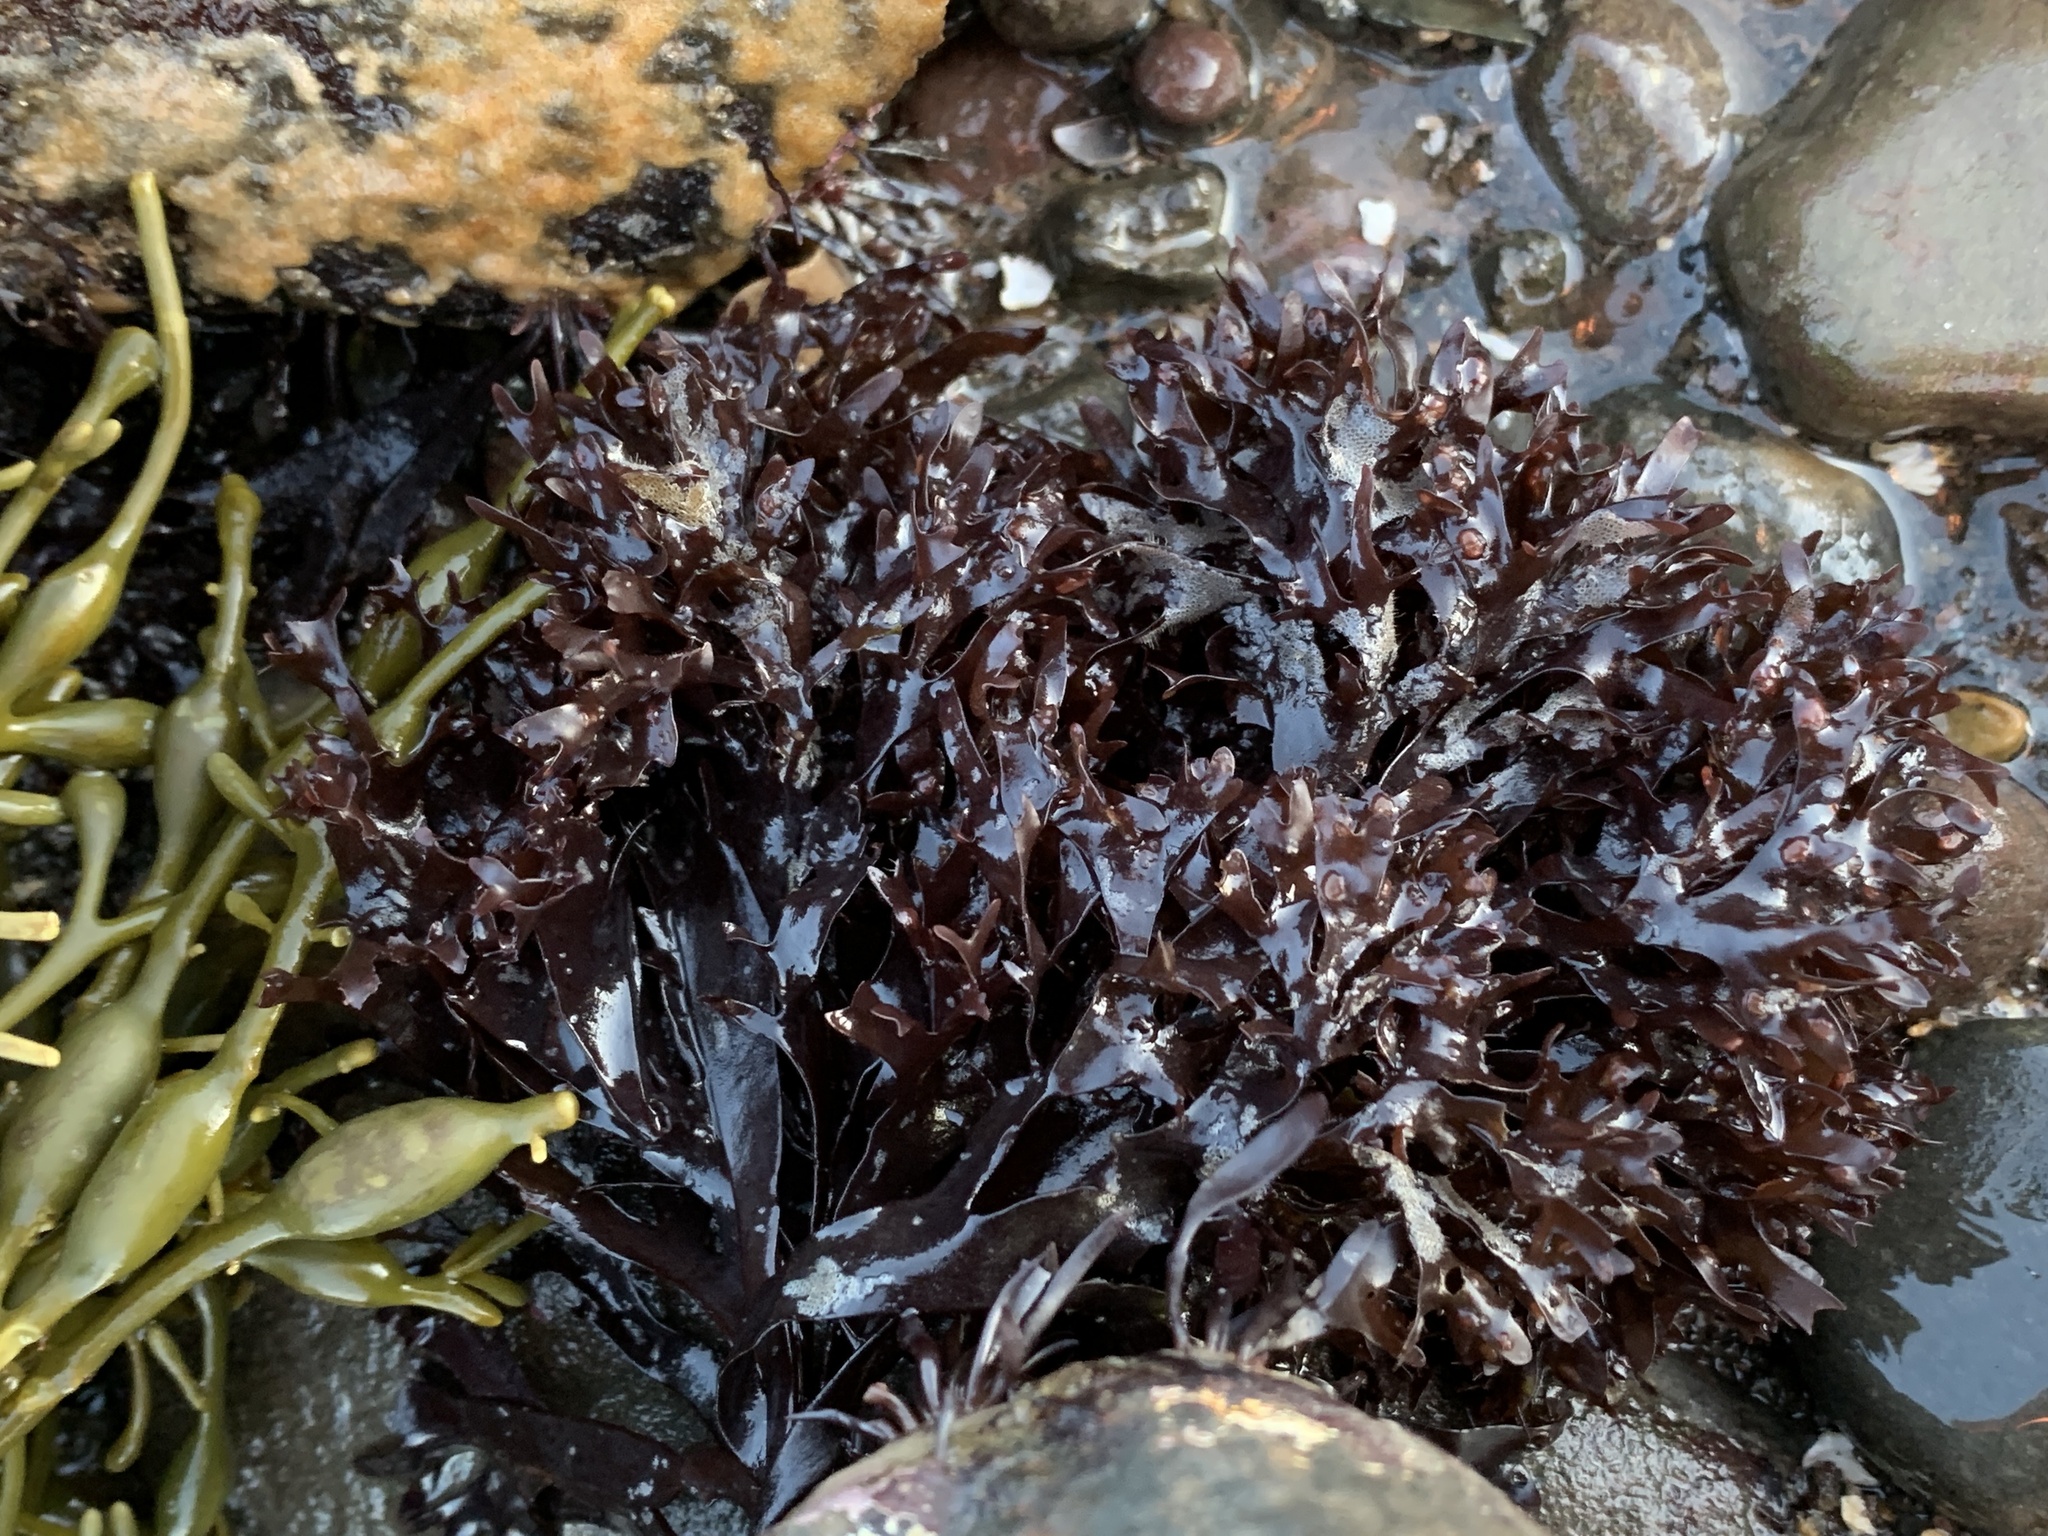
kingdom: Plantae
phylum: Rhodophyta
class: Florideophyceae
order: Gigartinales
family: Gigartinaceae
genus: Chondrus
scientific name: Chondrus crispus
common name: Carrageen
